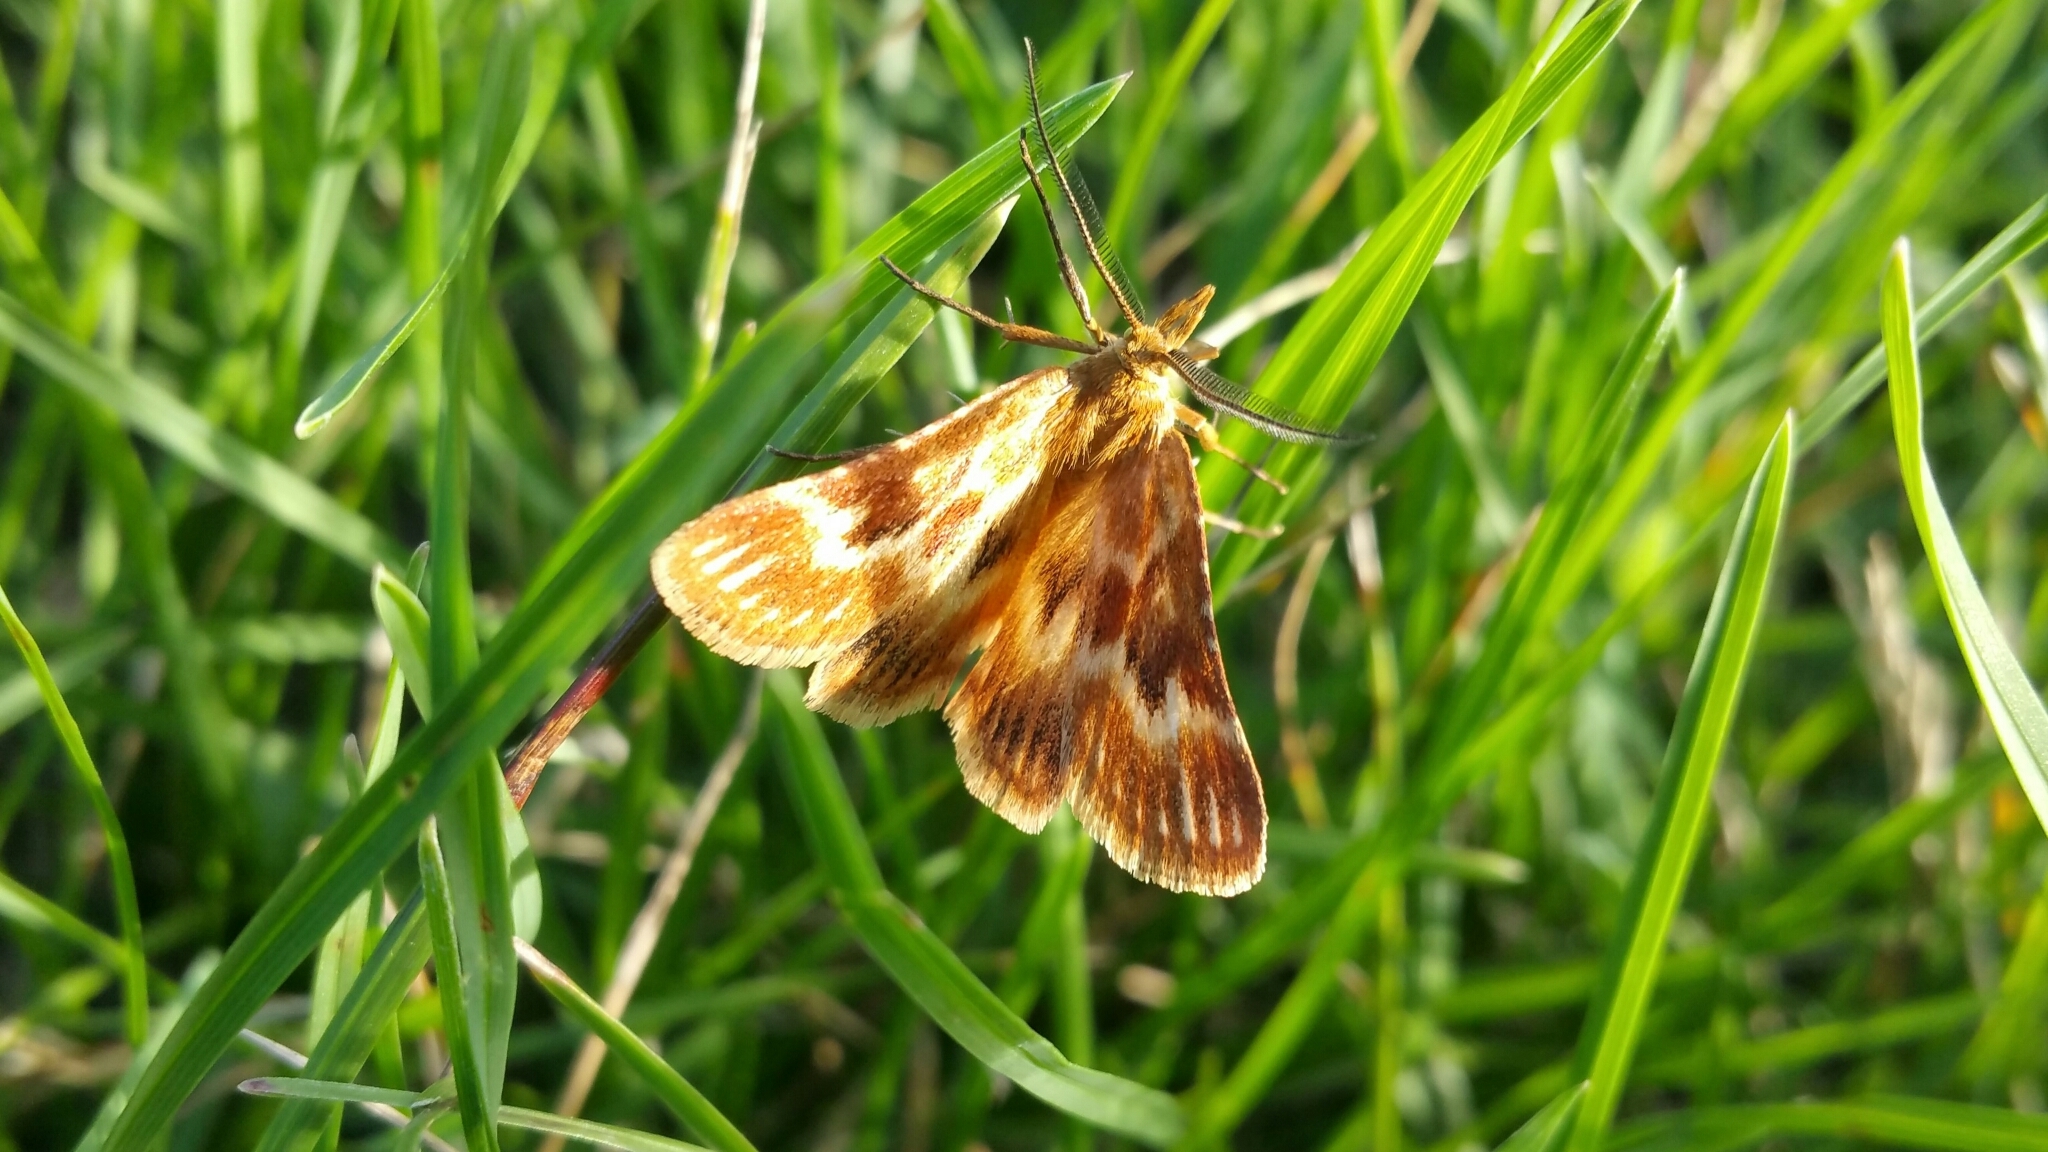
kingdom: Animalia
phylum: Arthropoda
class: Insecta
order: Lepidoptera
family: Pyralidae
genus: Synaphe
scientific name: Synaphe moldavica
